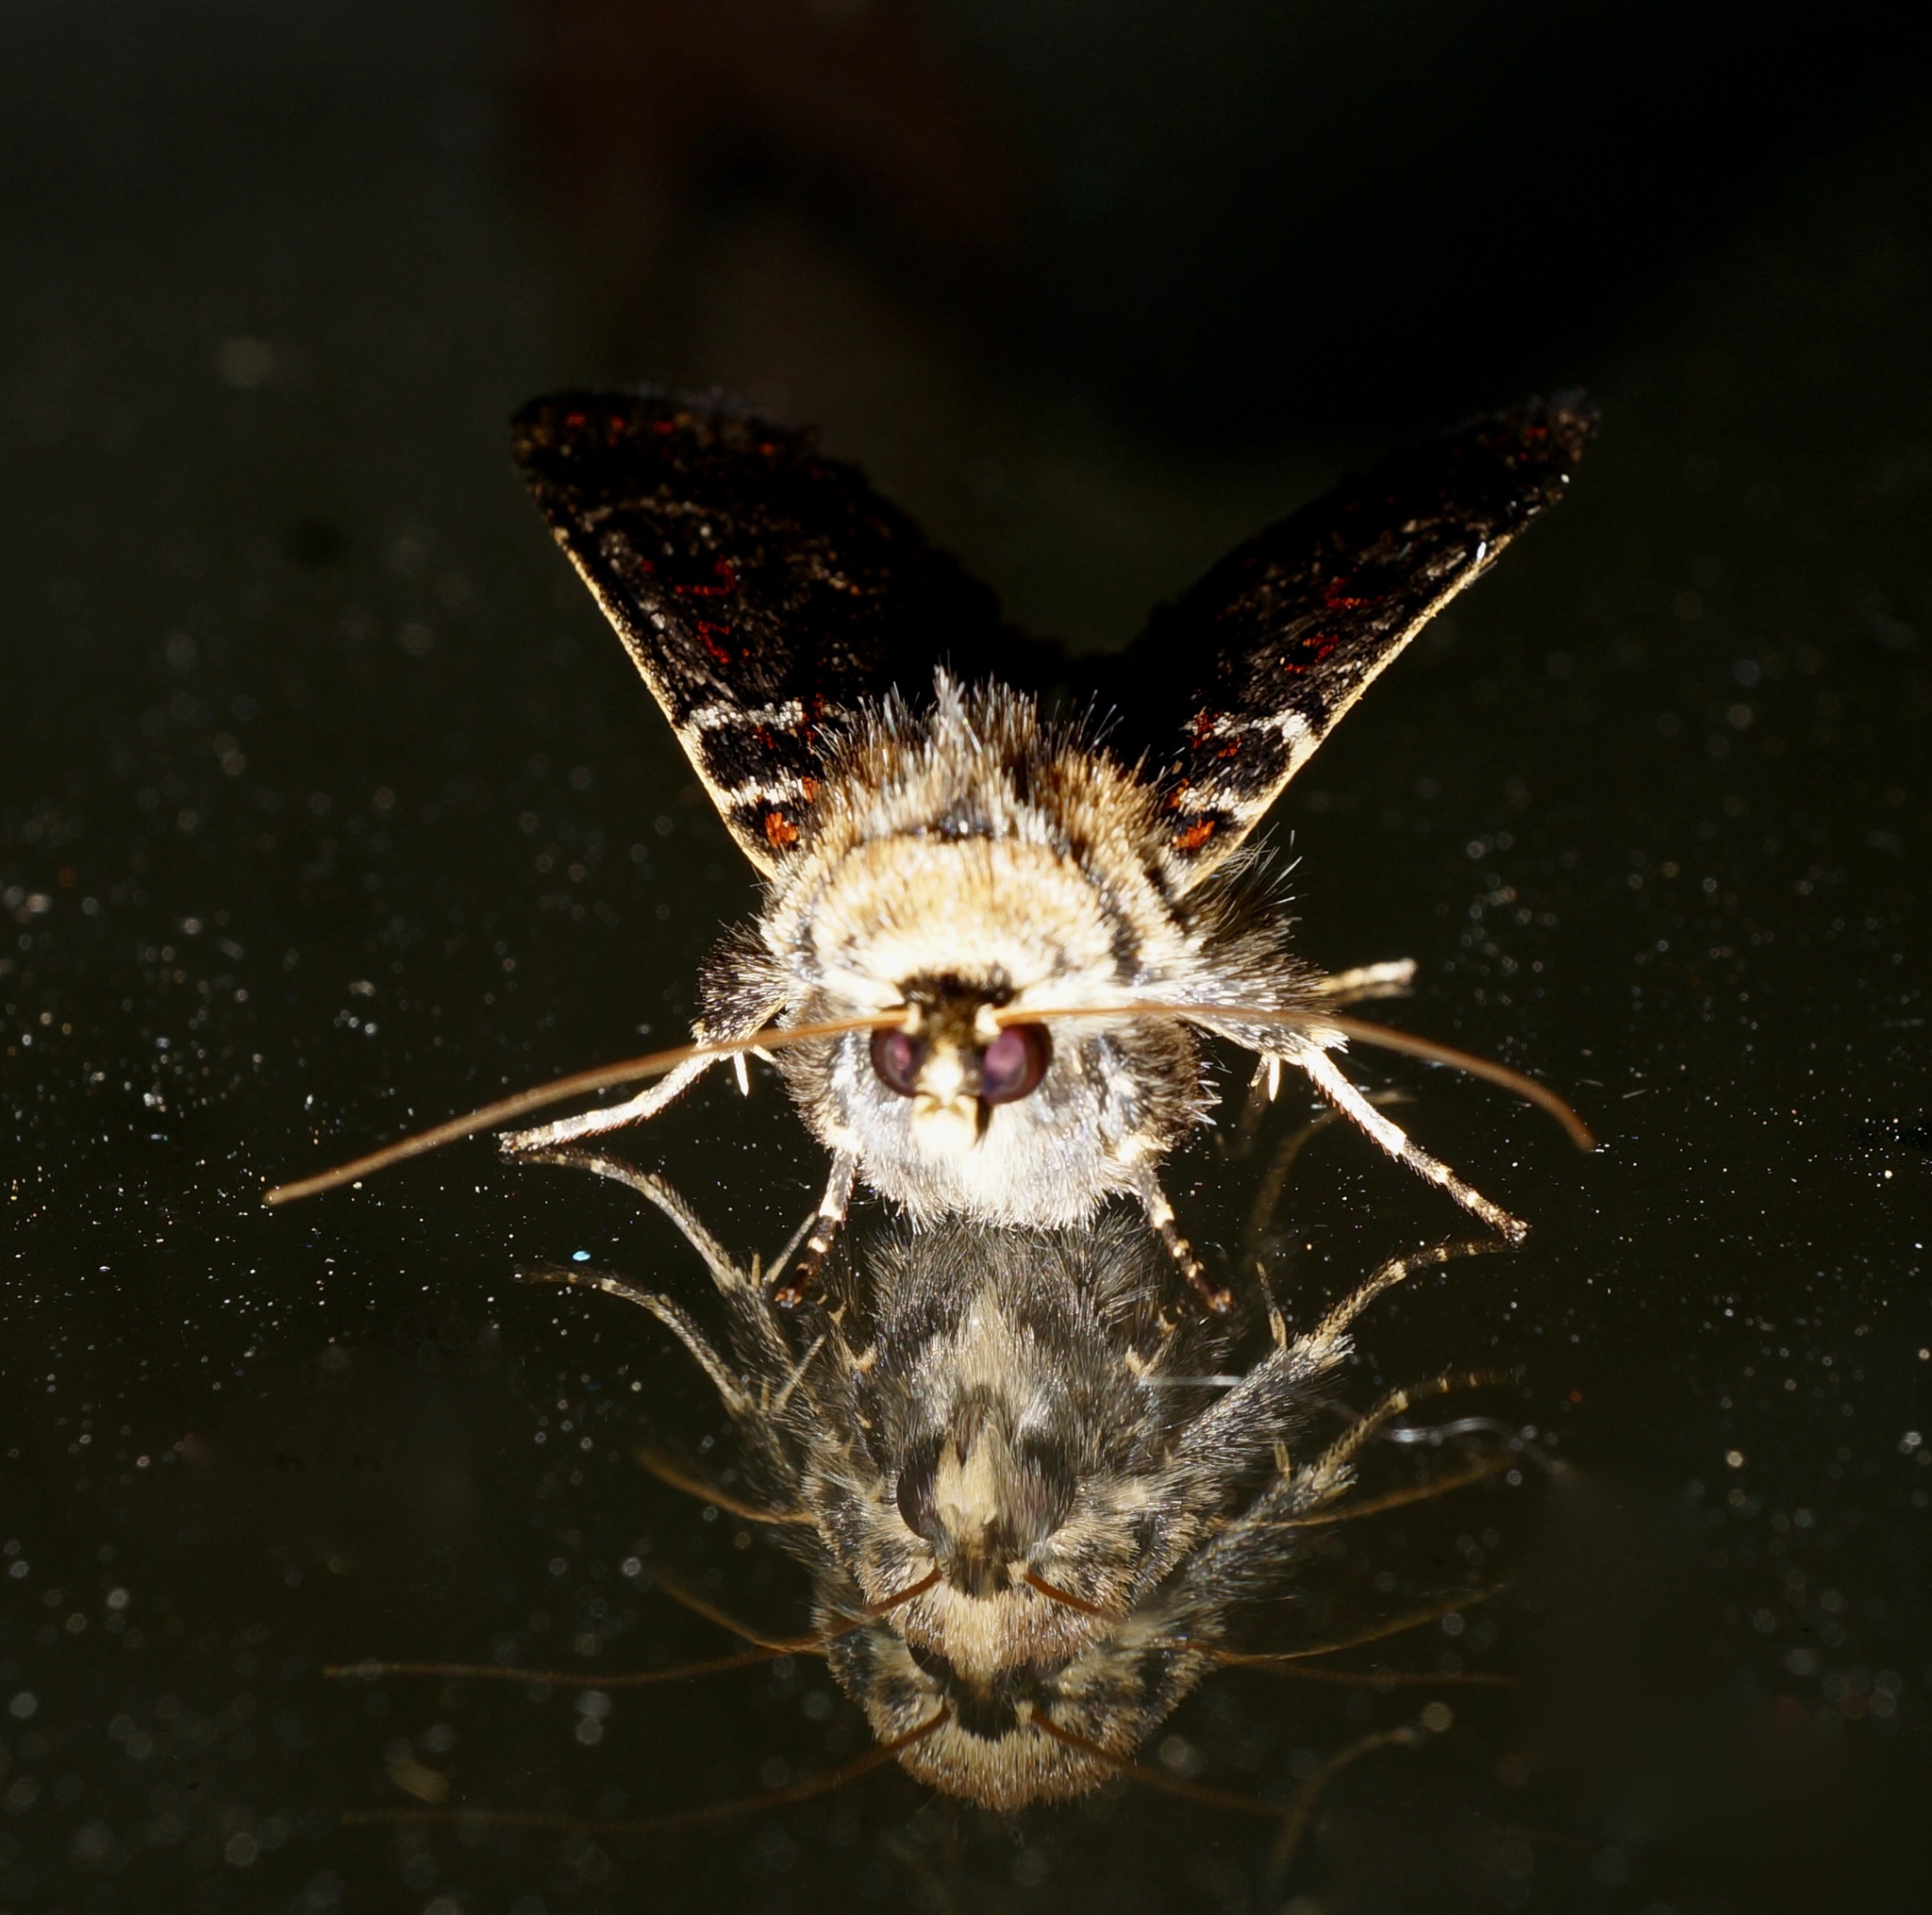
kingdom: Animalia
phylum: Arthropoda
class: Insecta
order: Lepidoptera
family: Noctuidae
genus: Proteuxoa
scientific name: Proteuxoa sanguinipuncta
